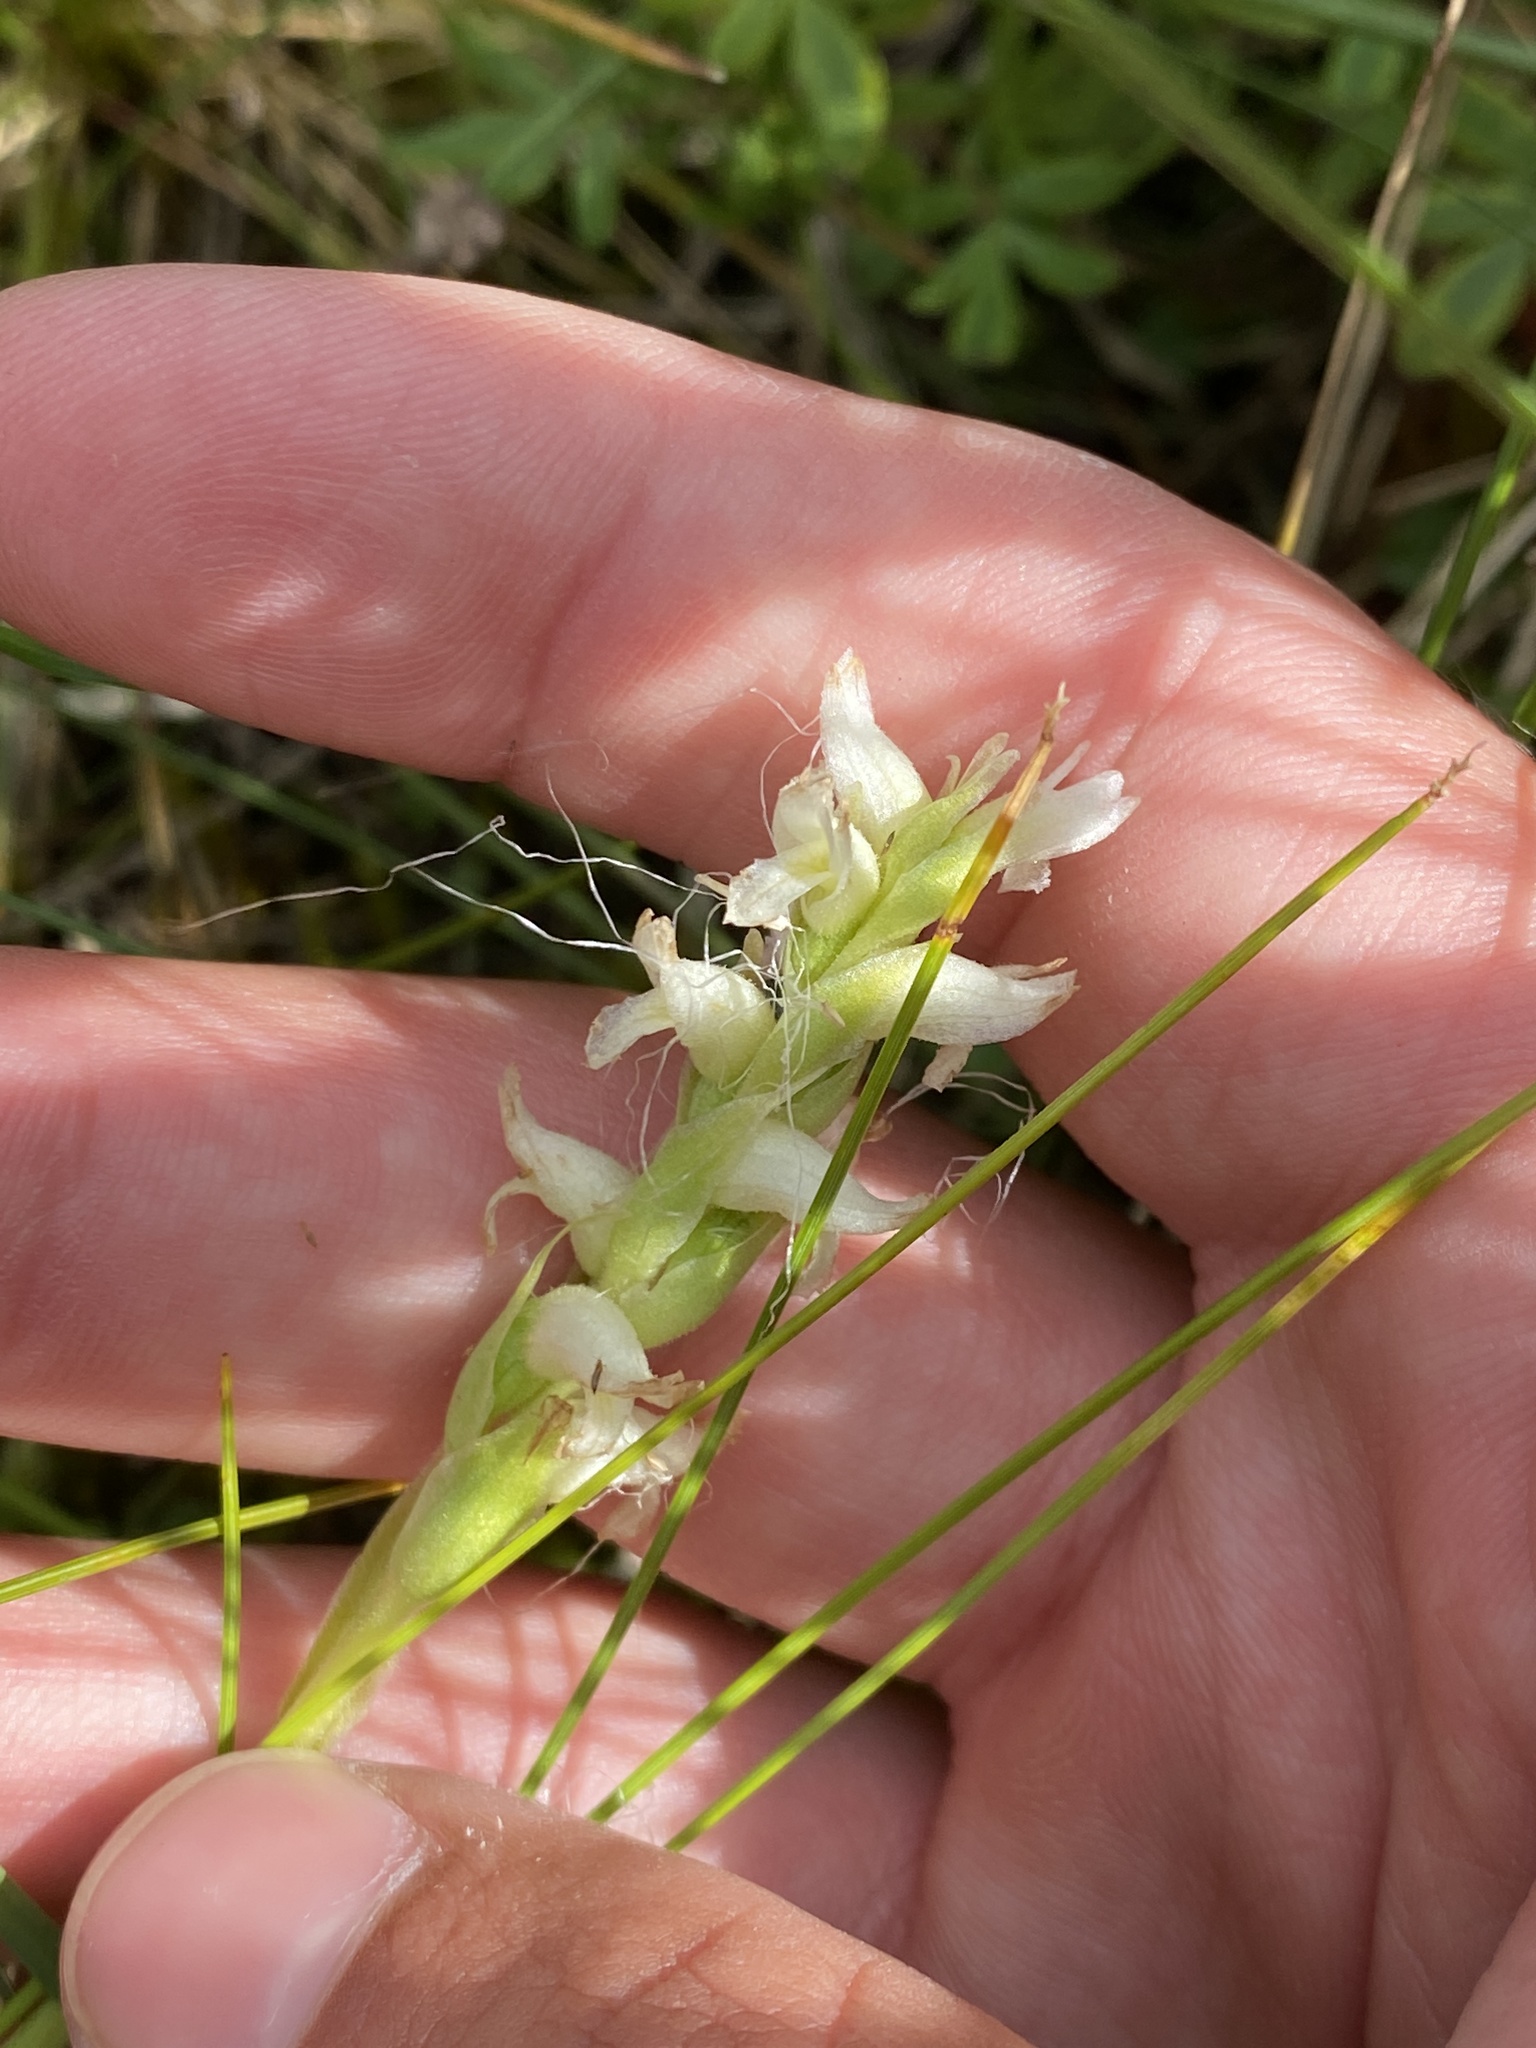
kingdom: Plantae
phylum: Tracheophyta
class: Liliopsida
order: Asparagales
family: Orchidaceae
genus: Spiranthes
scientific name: Spiranthes romanzoffiana
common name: Irish lady's-tresses
